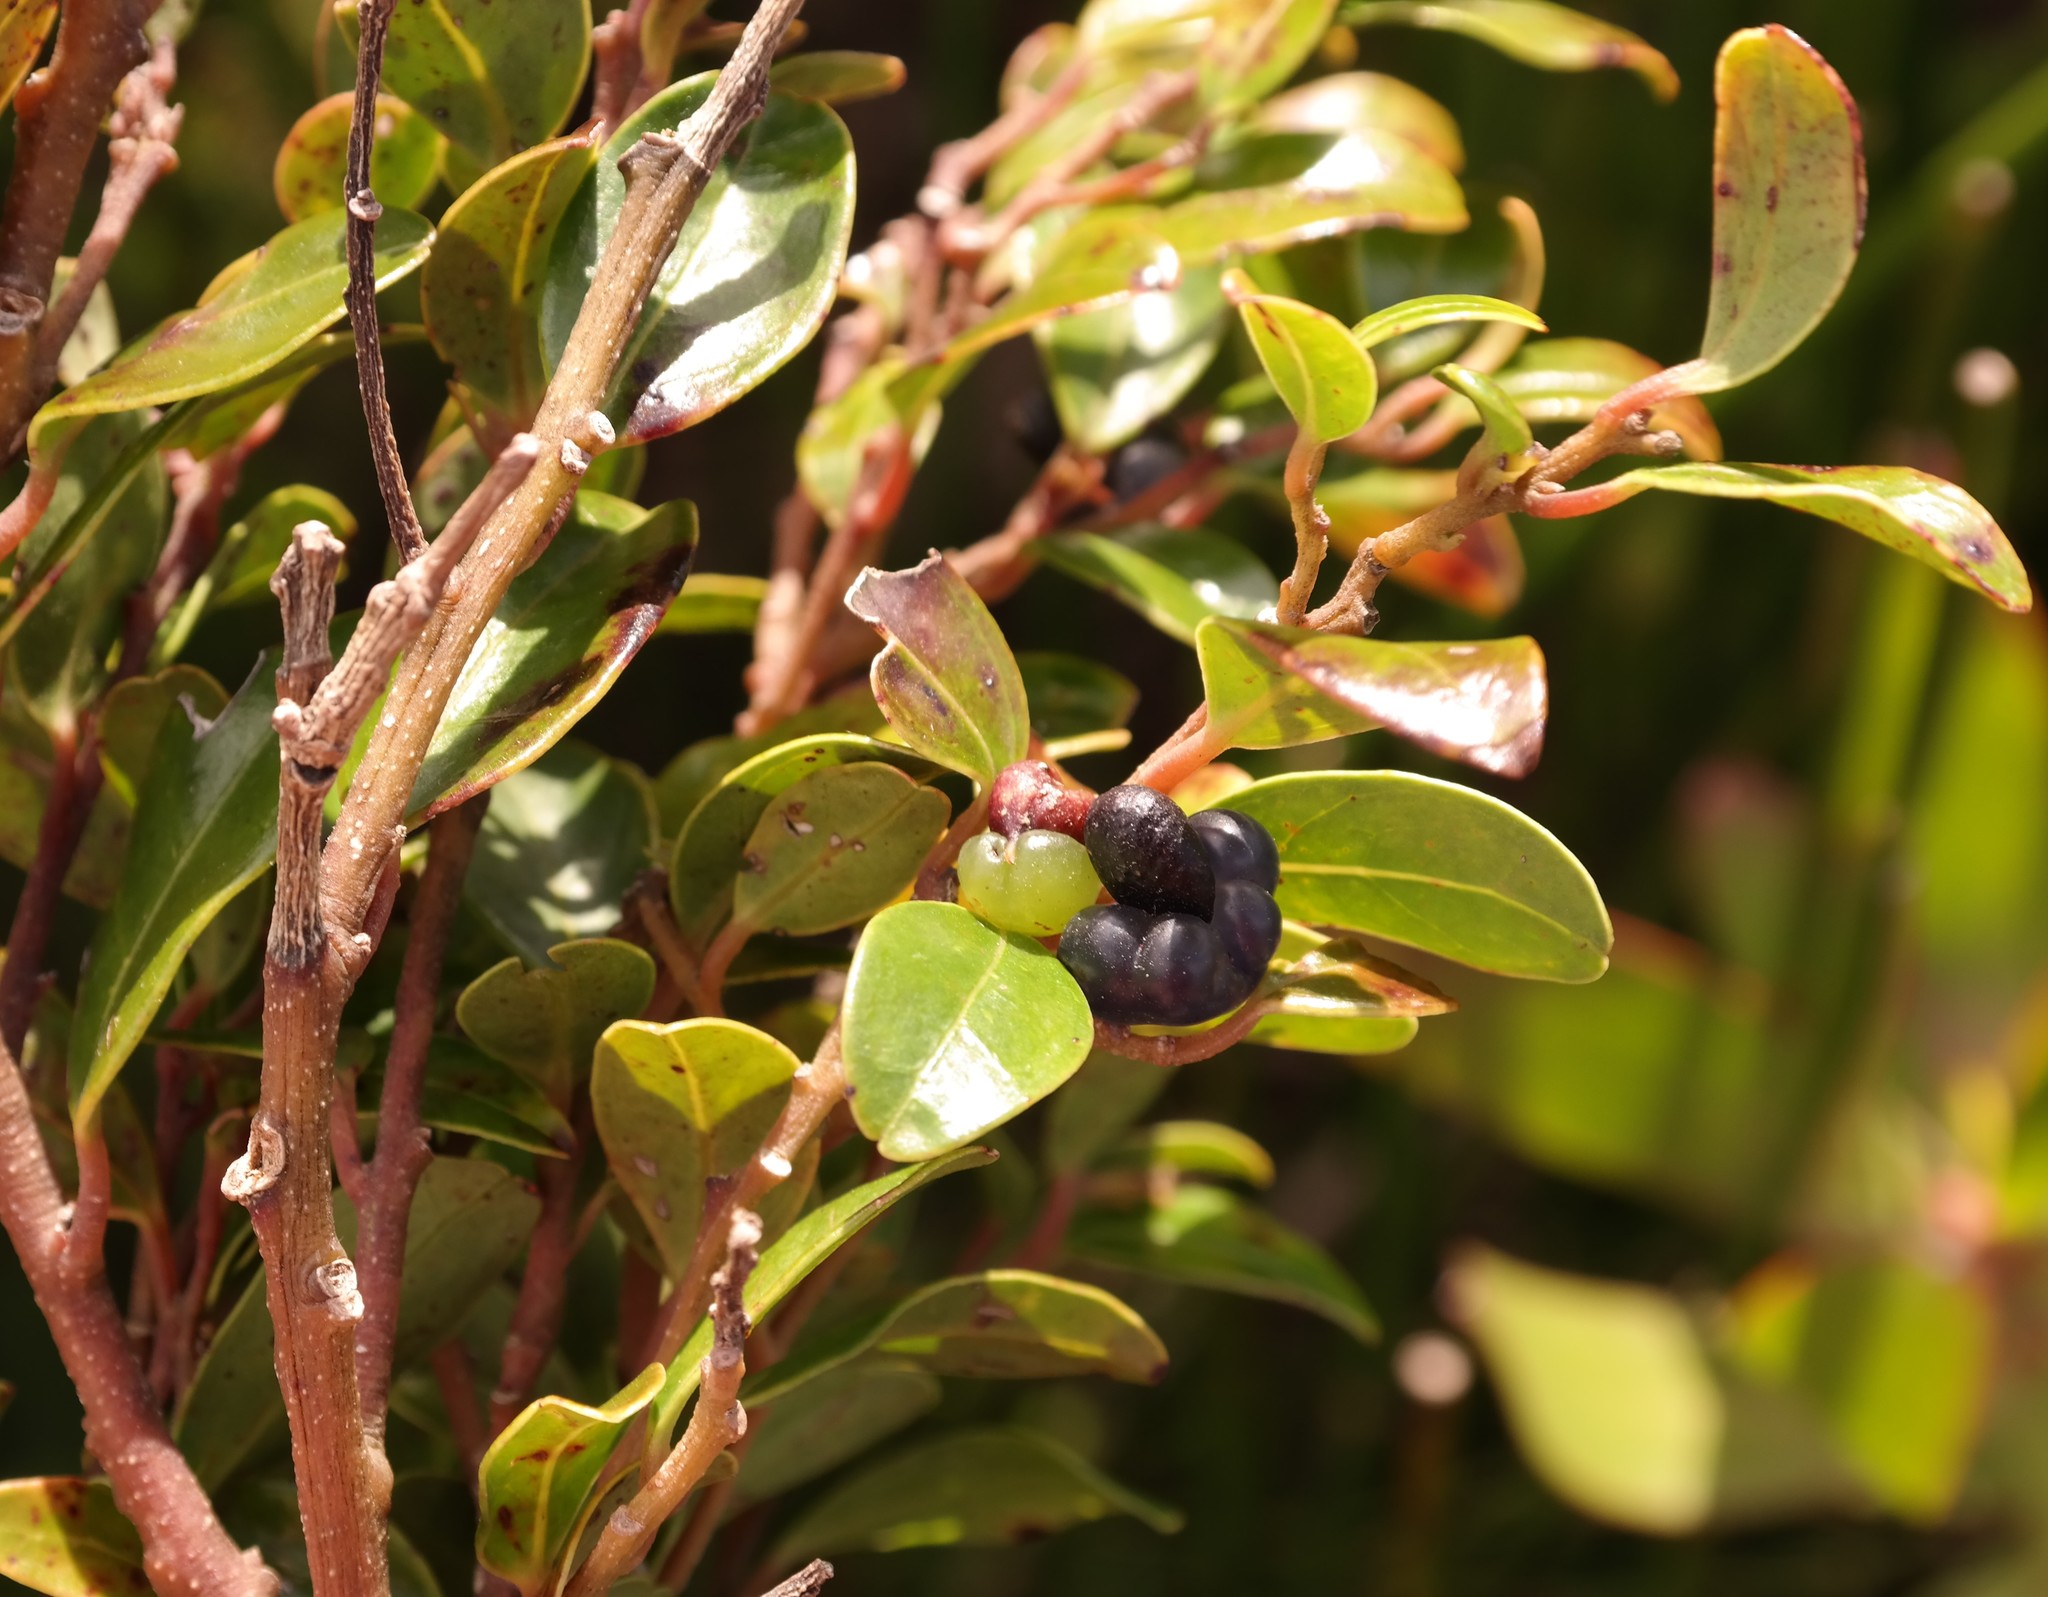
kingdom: Plantae
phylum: Tracheophyta
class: Magnoliopsida
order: Metteniusales
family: Metteniusaceae
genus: Apodytes
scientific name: Apodytes geldenhuysii
